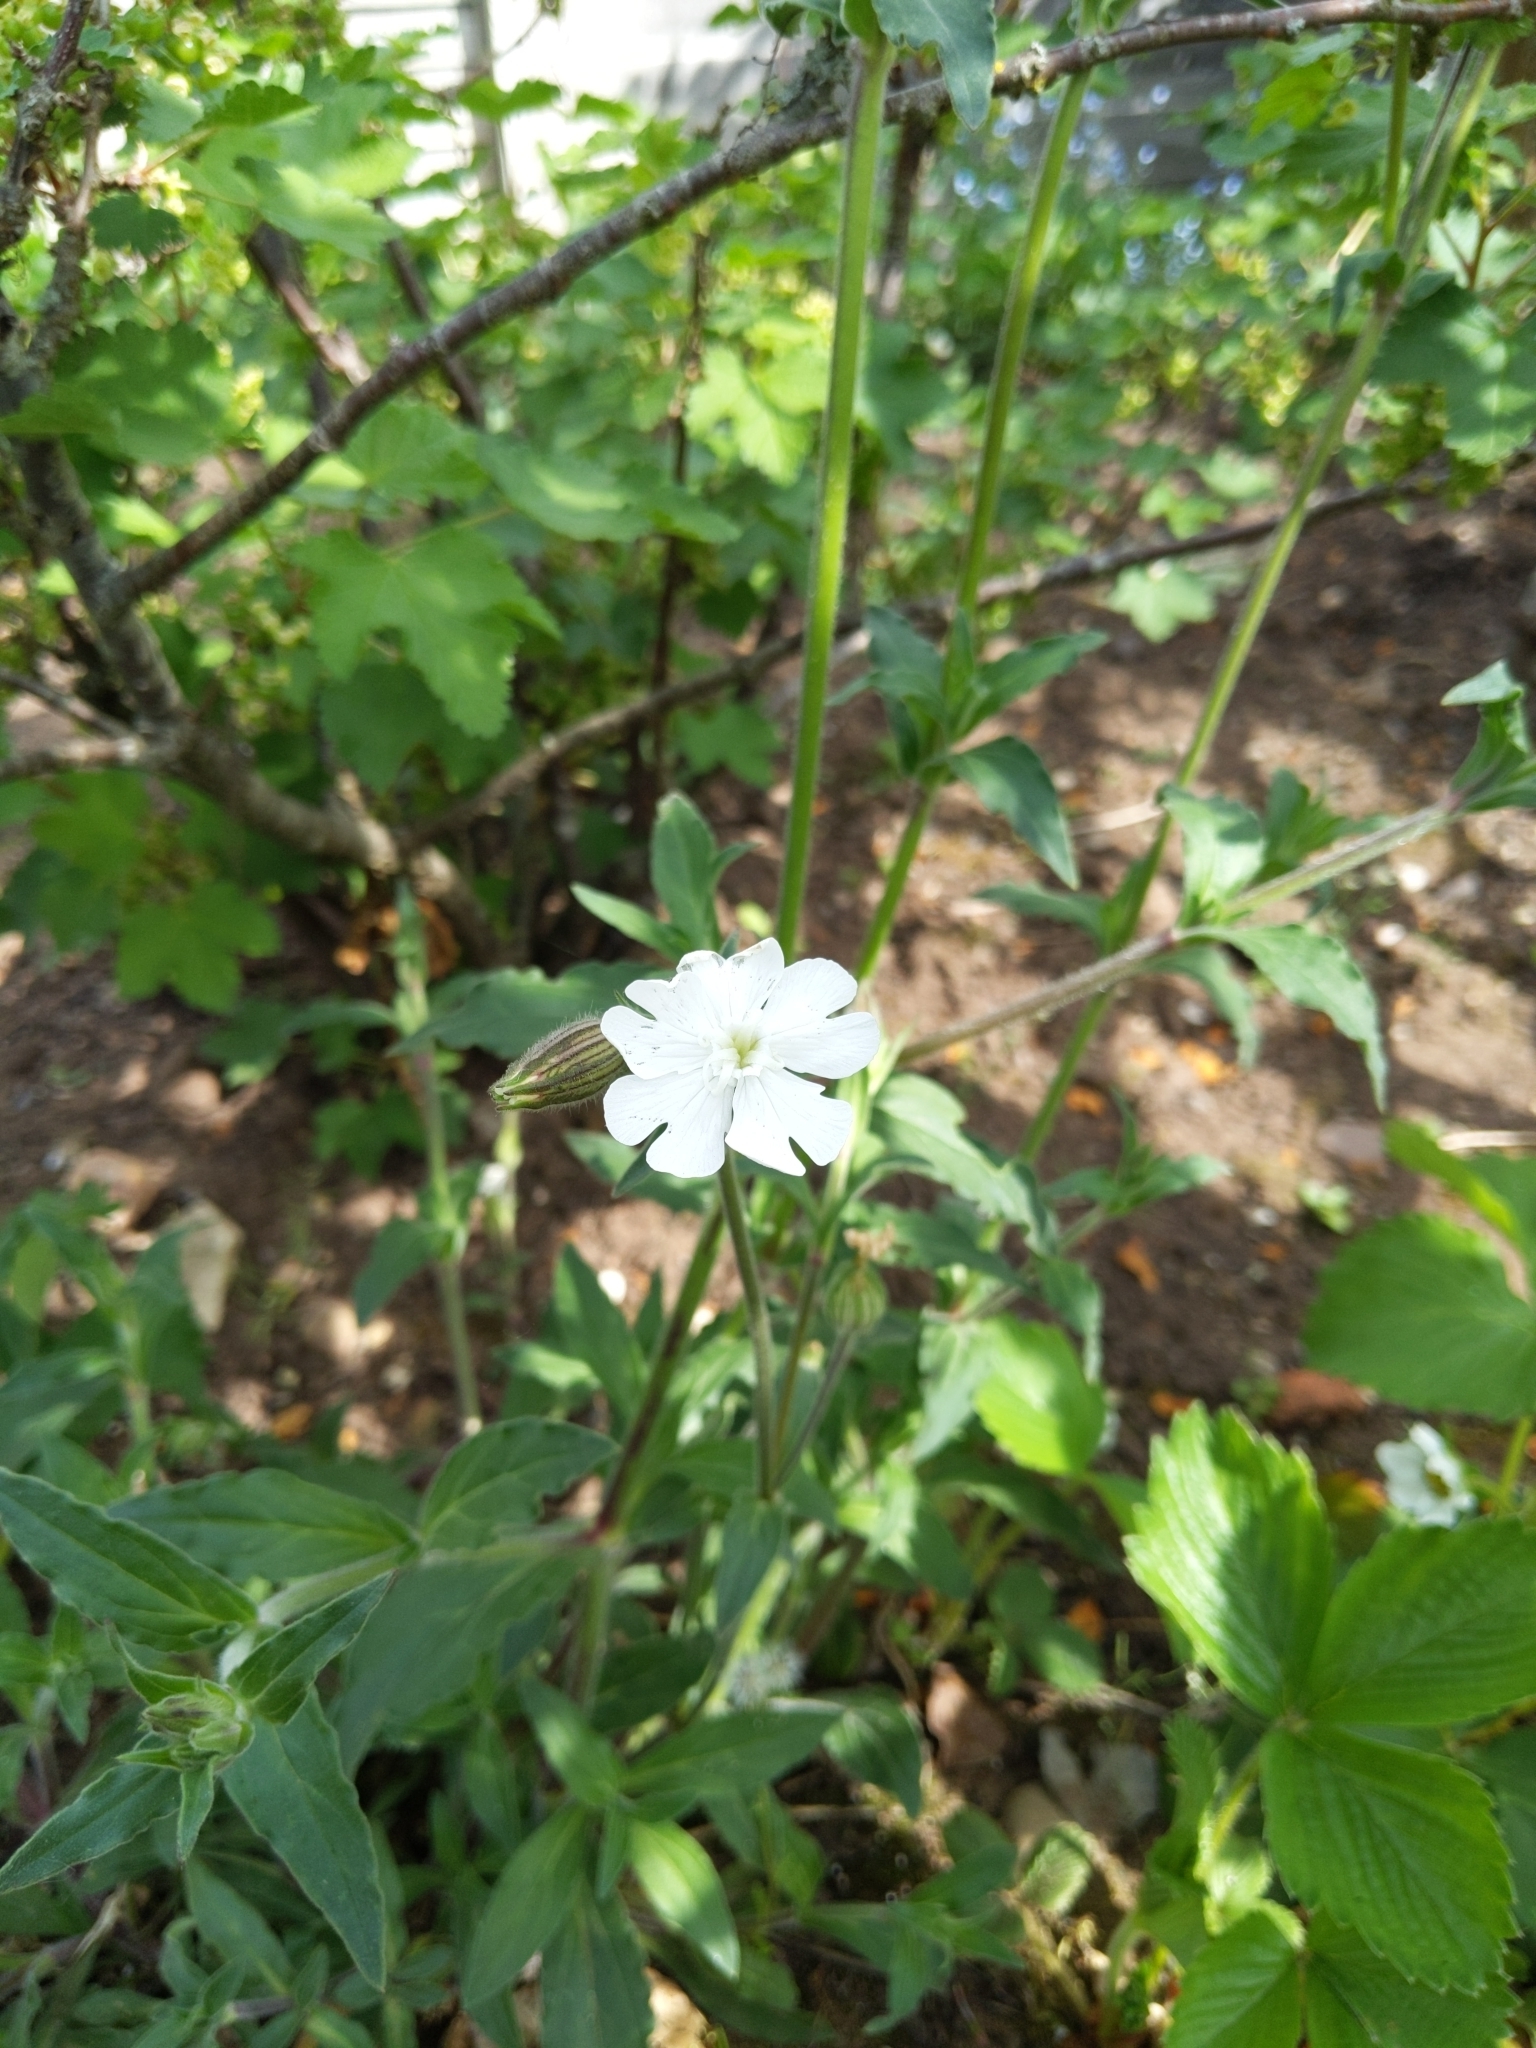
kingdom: Plantae
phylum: Tracheophyta
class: Magnoliopsida
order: Caryophyllales
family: Caryophyllaceae
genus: Silene
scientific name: Silene latifolia
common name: White campion
